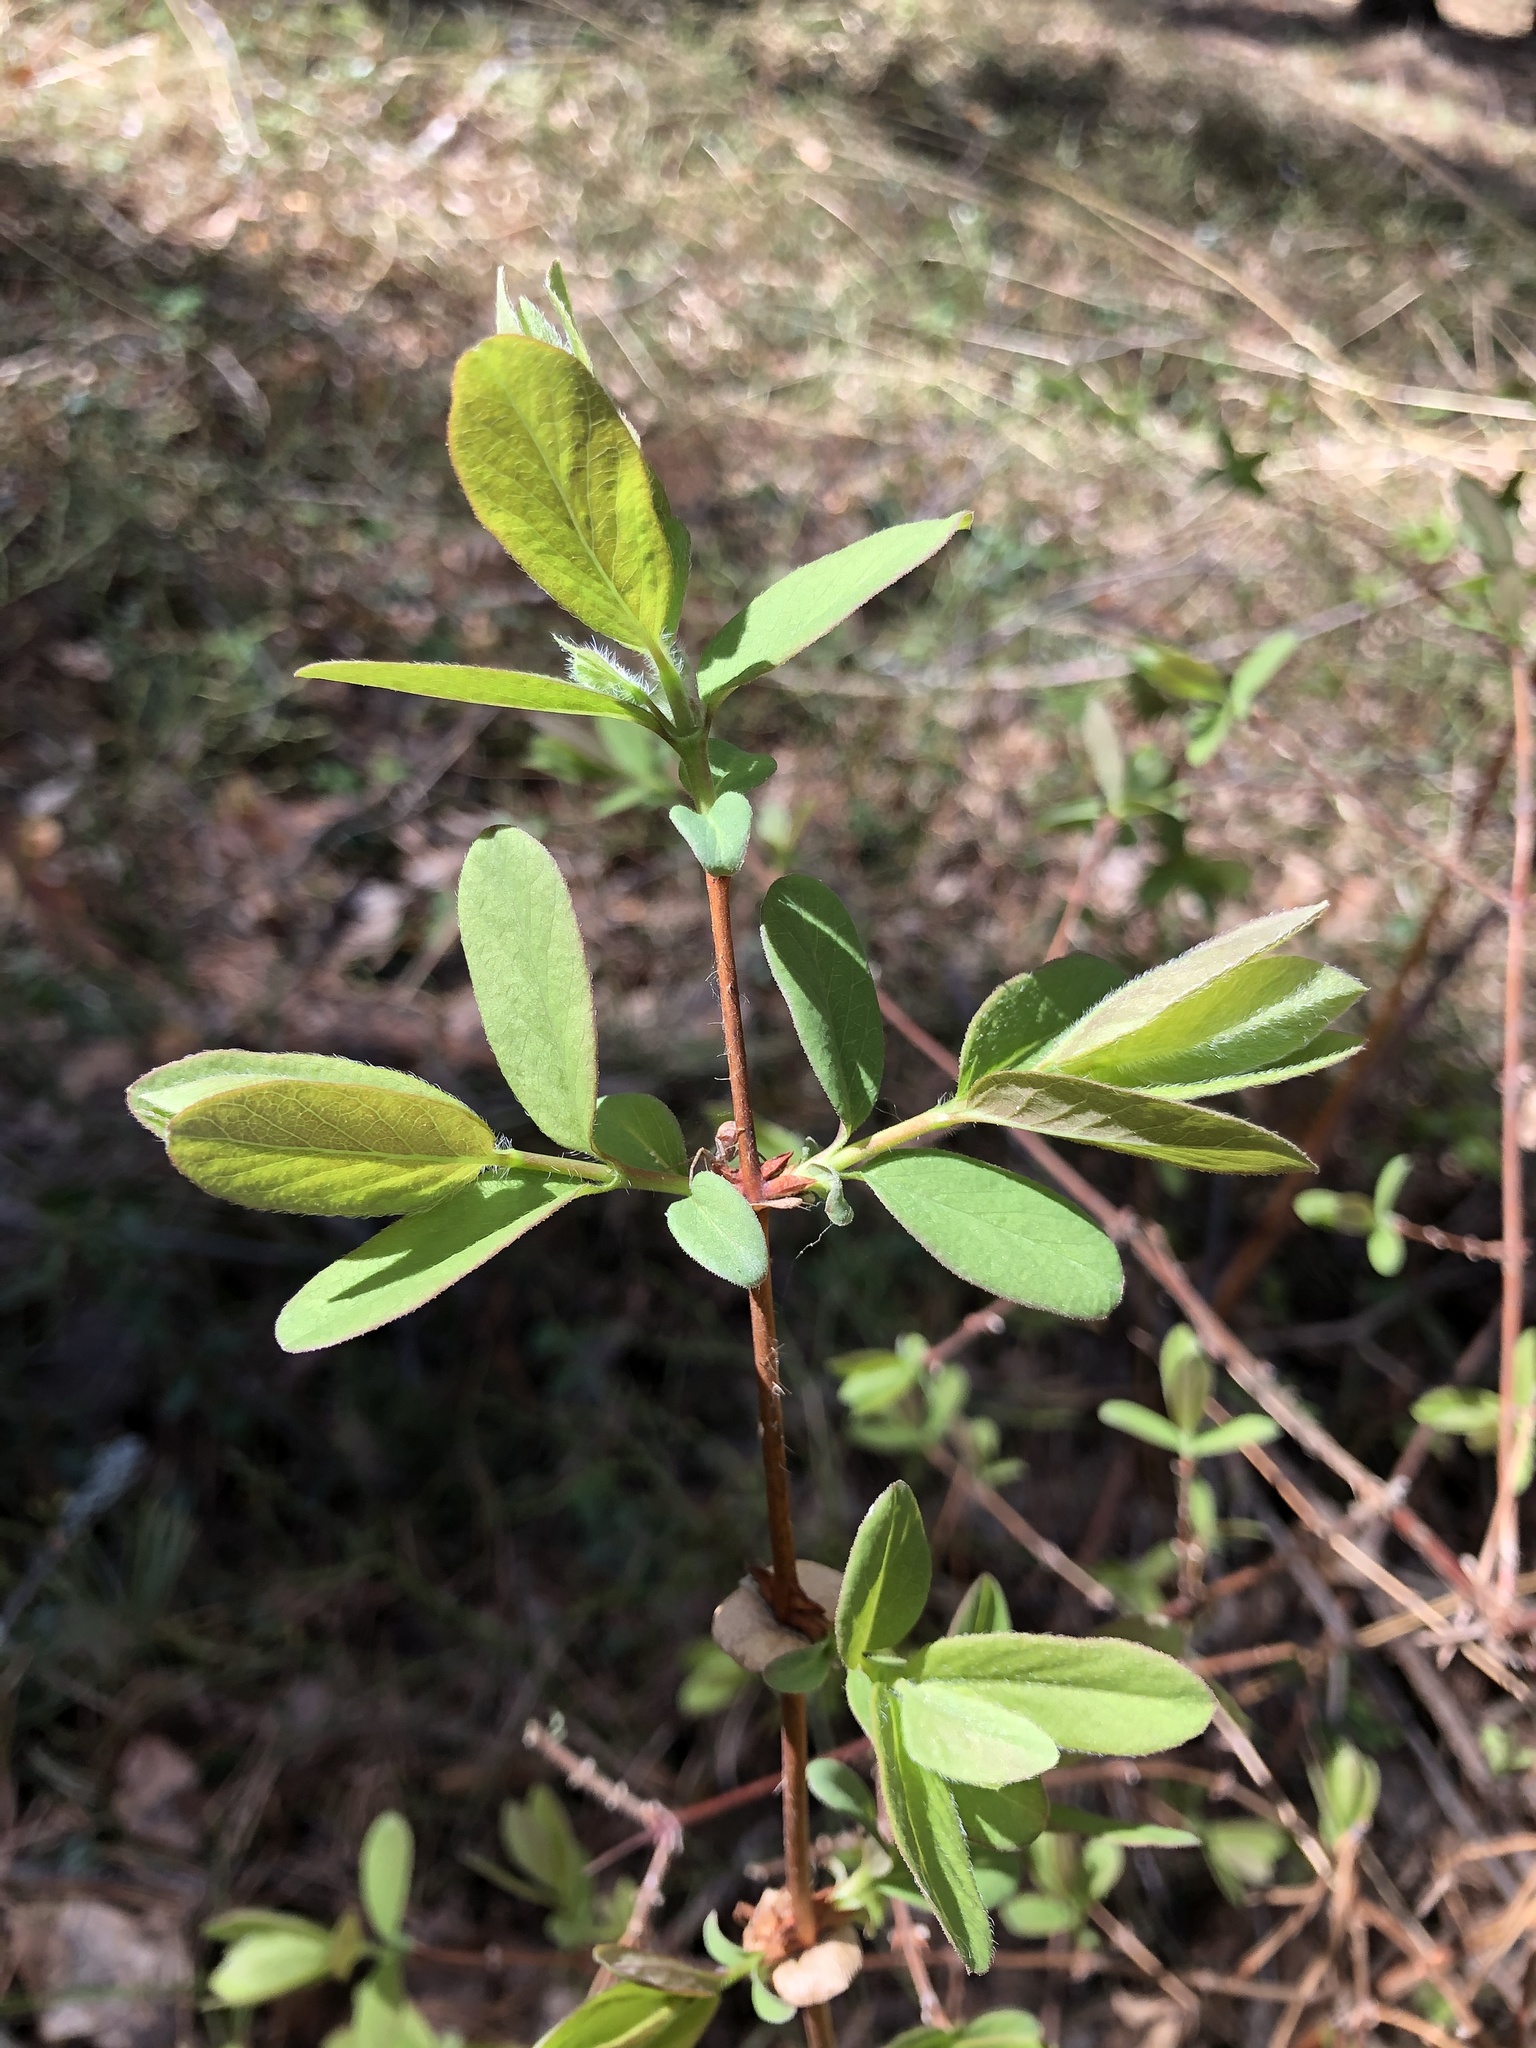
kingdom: Plantae
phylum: Tracheophyta
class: Magnoliopsida
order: Dipsacales
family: Caprifoliaceae
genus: Lonicera
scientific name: Lonicera xylosteum
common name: Fly honeysuckle
